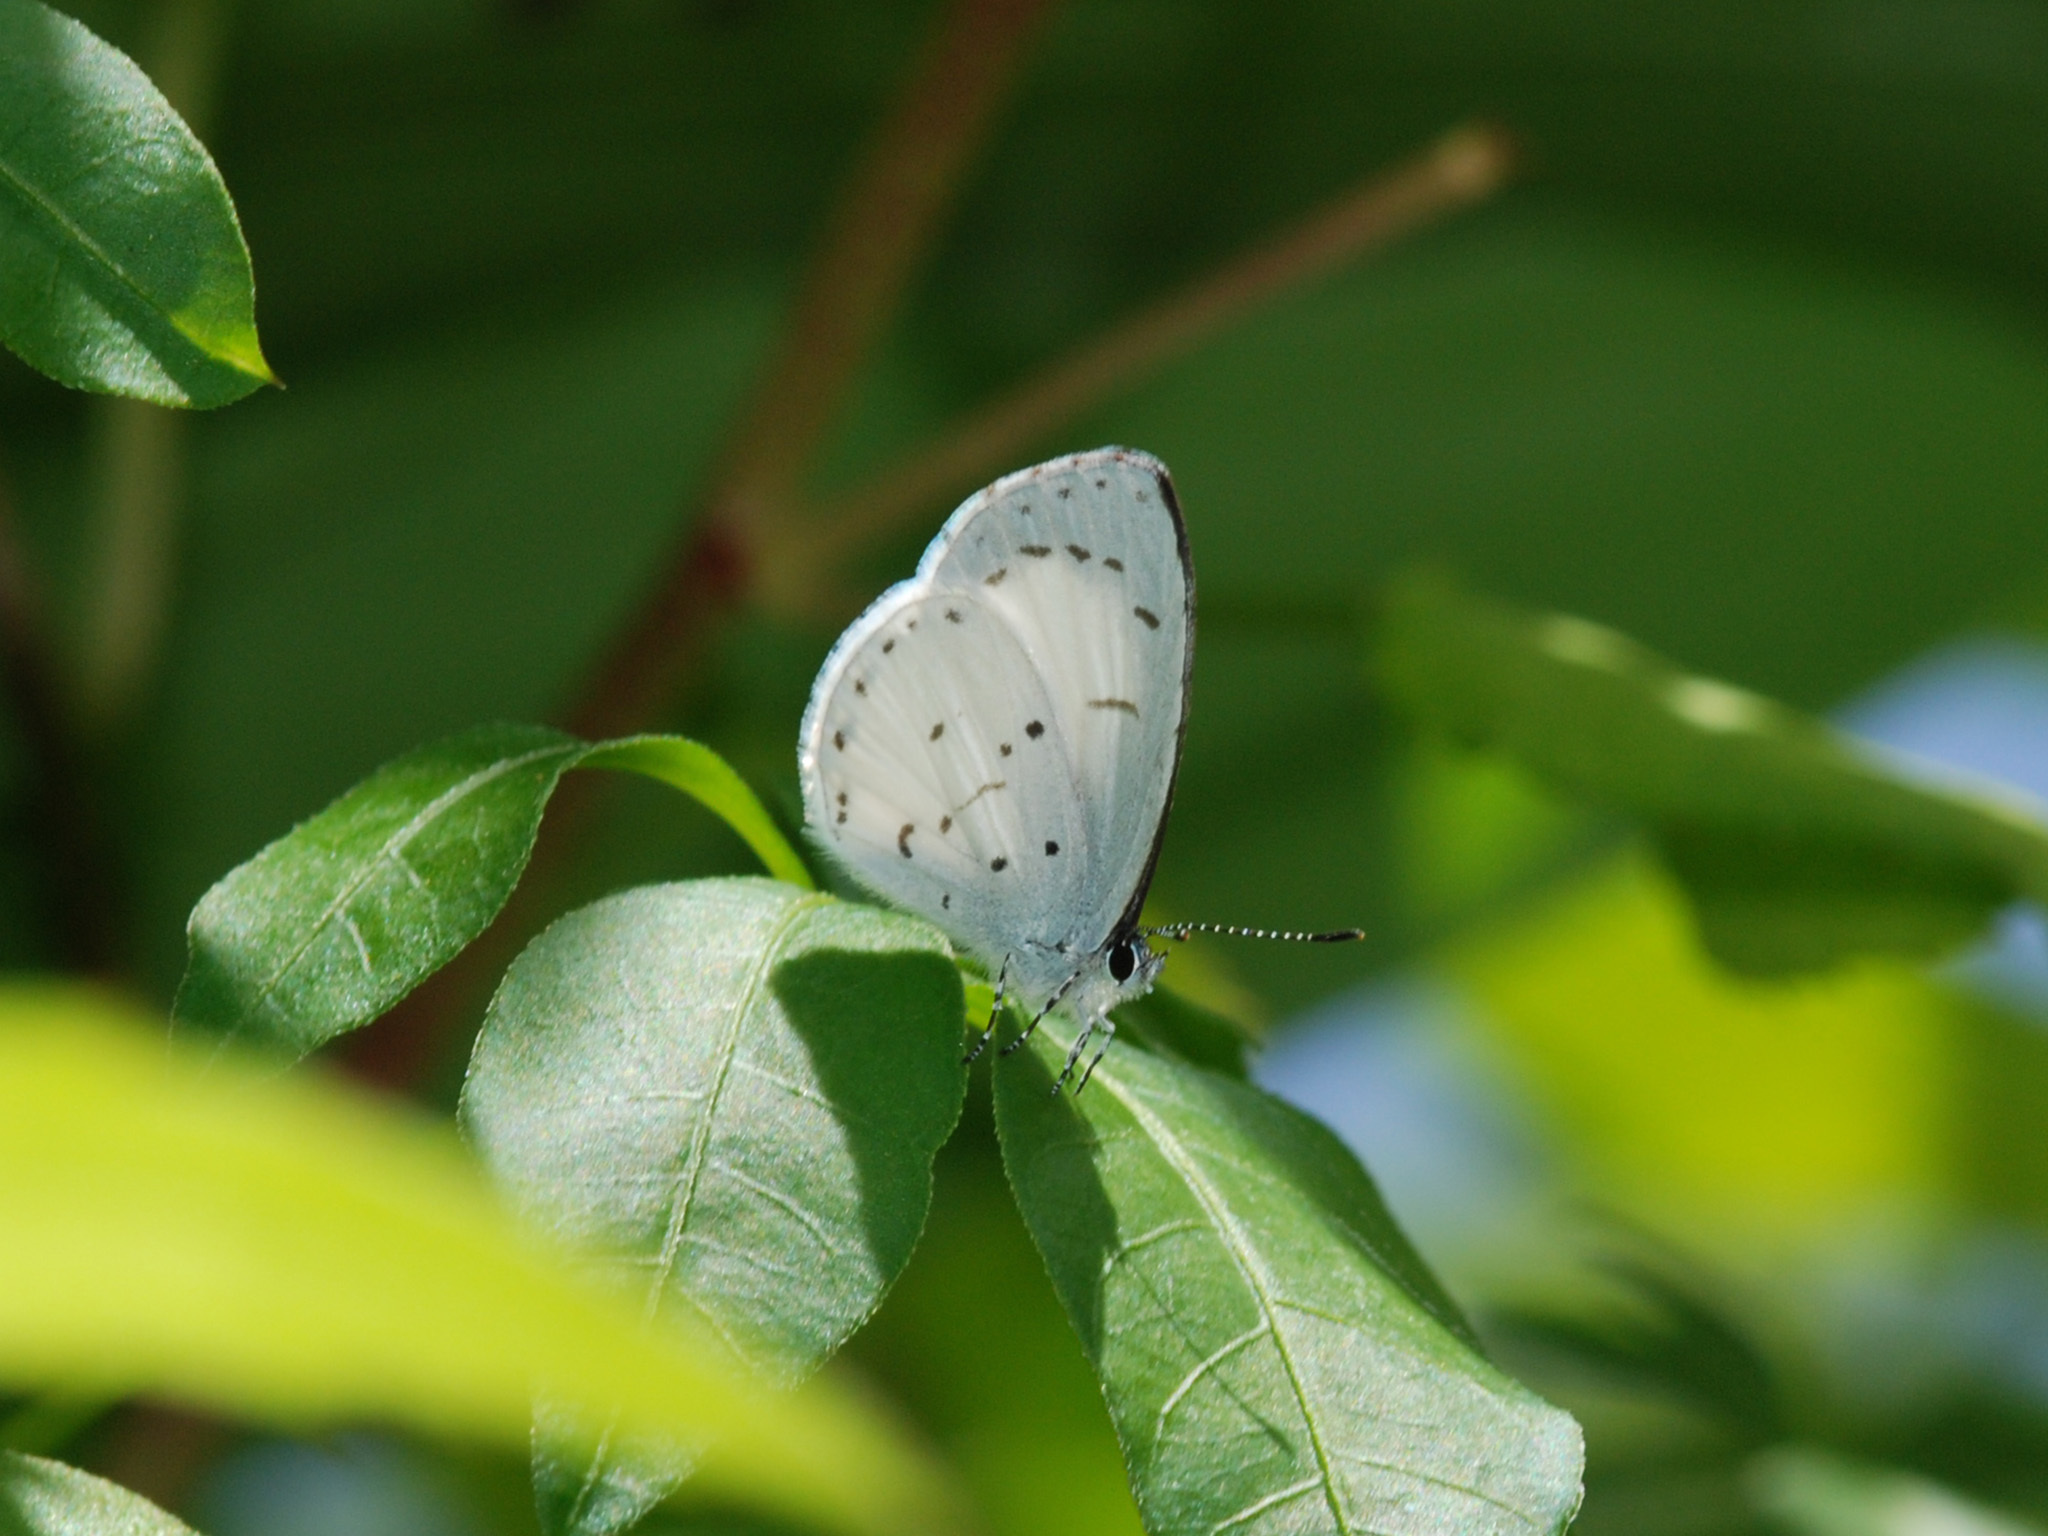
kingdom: Animalia
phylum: Arthropoda
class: Insecta
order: Lepidoptera
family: Lycaenidae
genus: Udara
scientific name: Udara akasa
